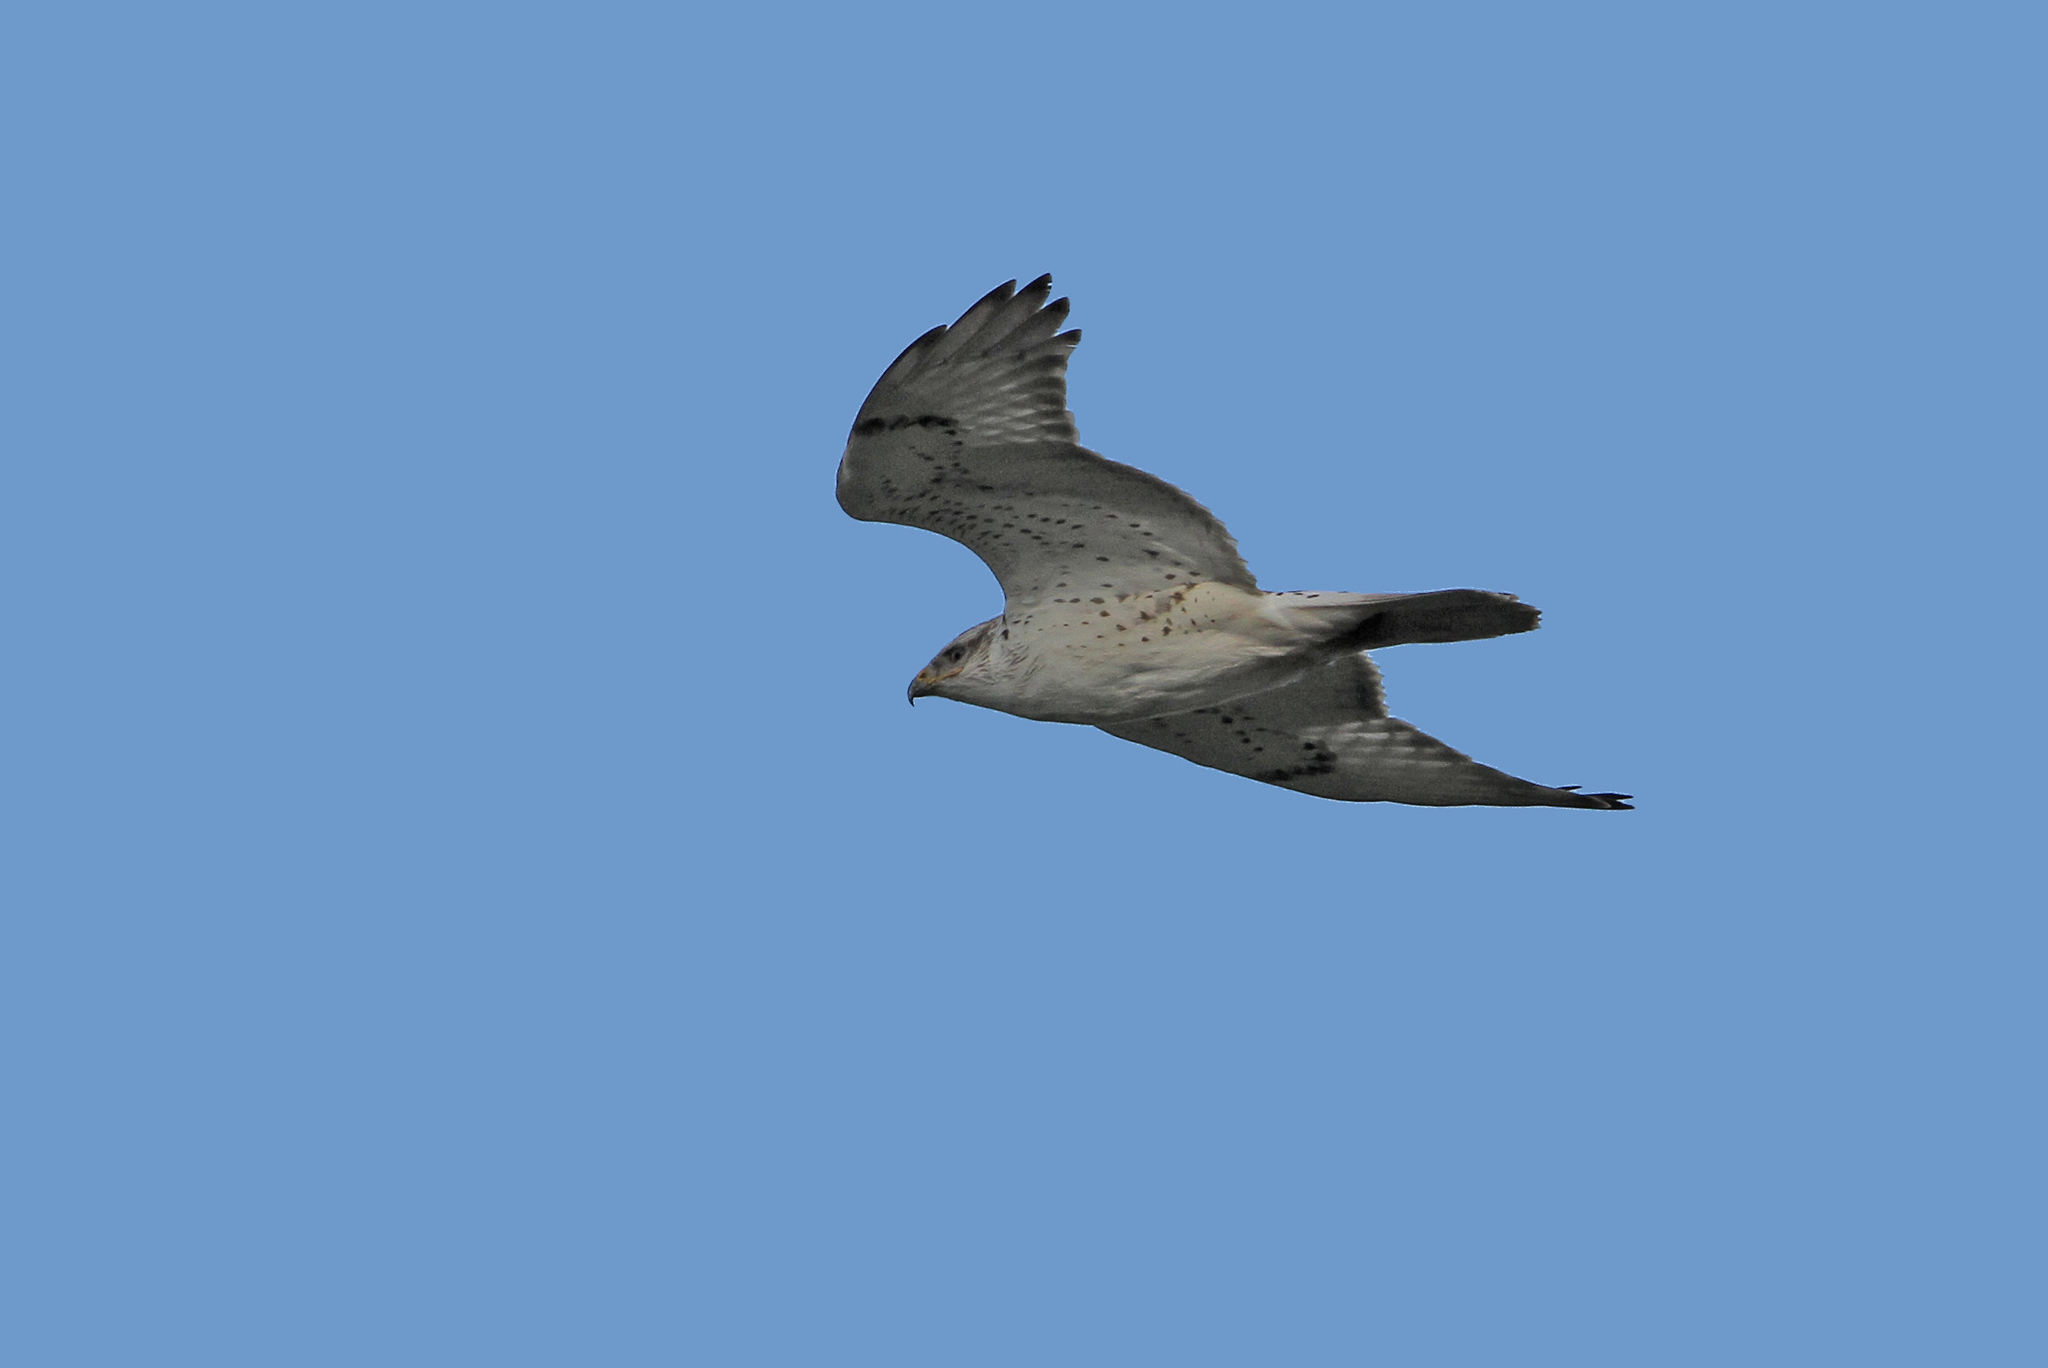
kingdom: Animalia
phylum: Chordata
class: Aves
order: Accipitriformes
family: Accipitridae
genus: Buteo
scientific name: Buteo regalis
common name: Ferruginous hawk
